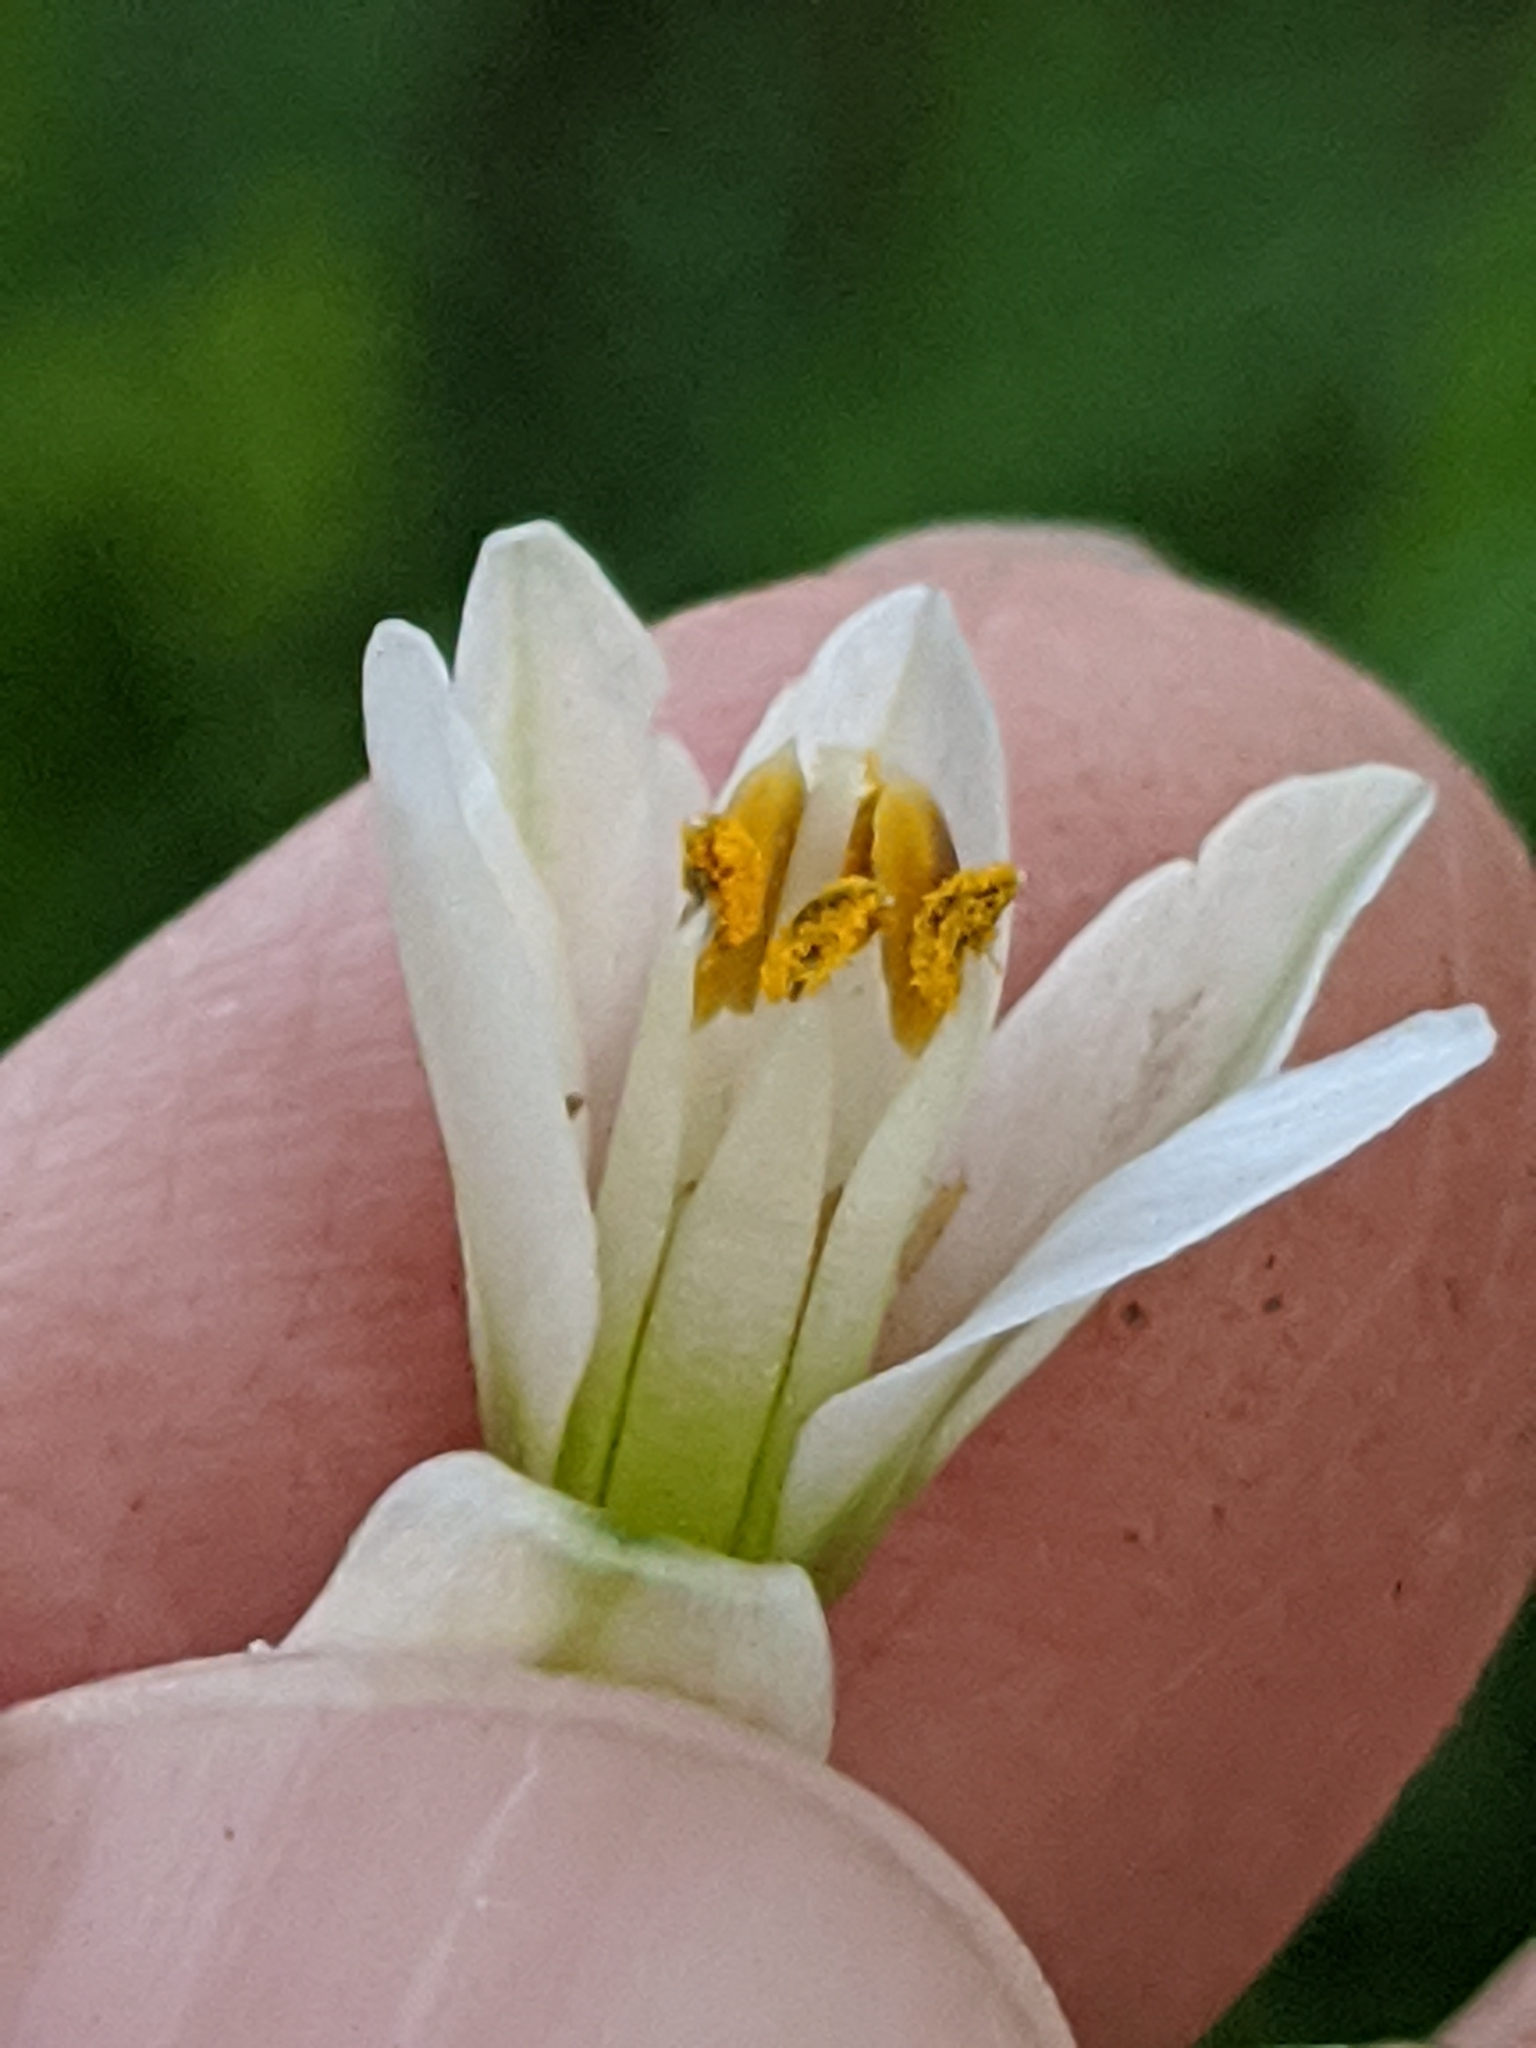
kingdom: Plantae
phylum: Tracheophyta
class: Liliopsida
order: Asparagales
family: Amaryllidaceae
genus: Nothoscordum
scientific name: Nothoscordum gracile
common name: Slender false garlic
